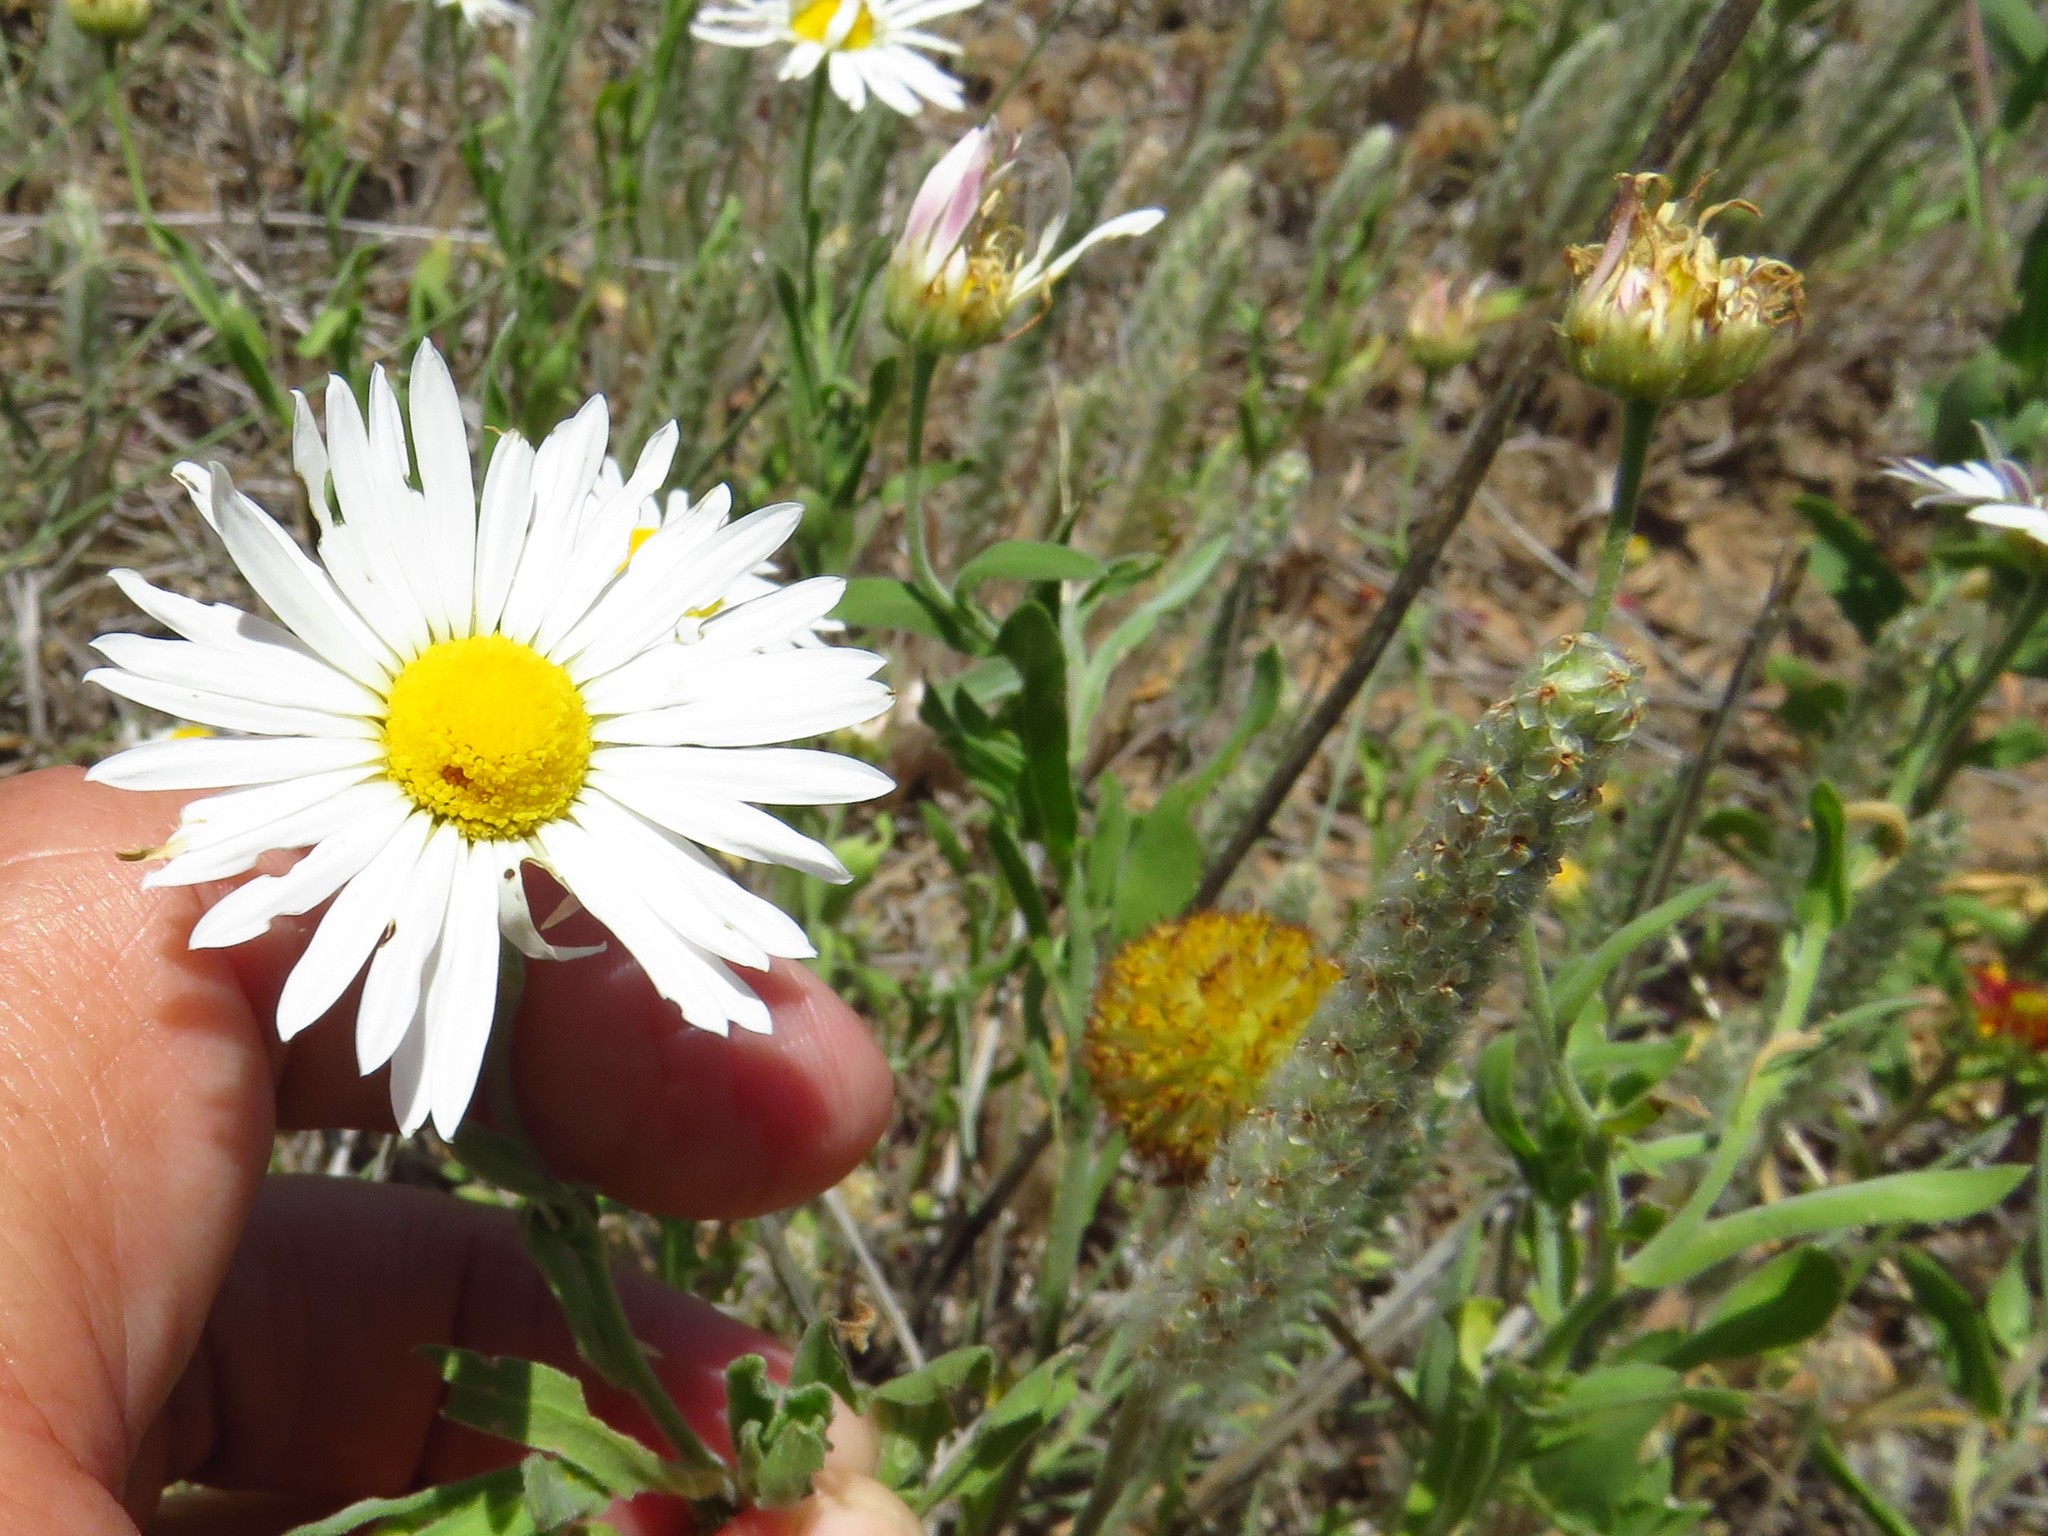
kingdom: Plantae
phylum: Tracheophyta
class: Magnoliopsida
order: Asterales
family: Asteraceae
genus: Aphanostephus
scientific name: Aphanostephus skirrhobasis
